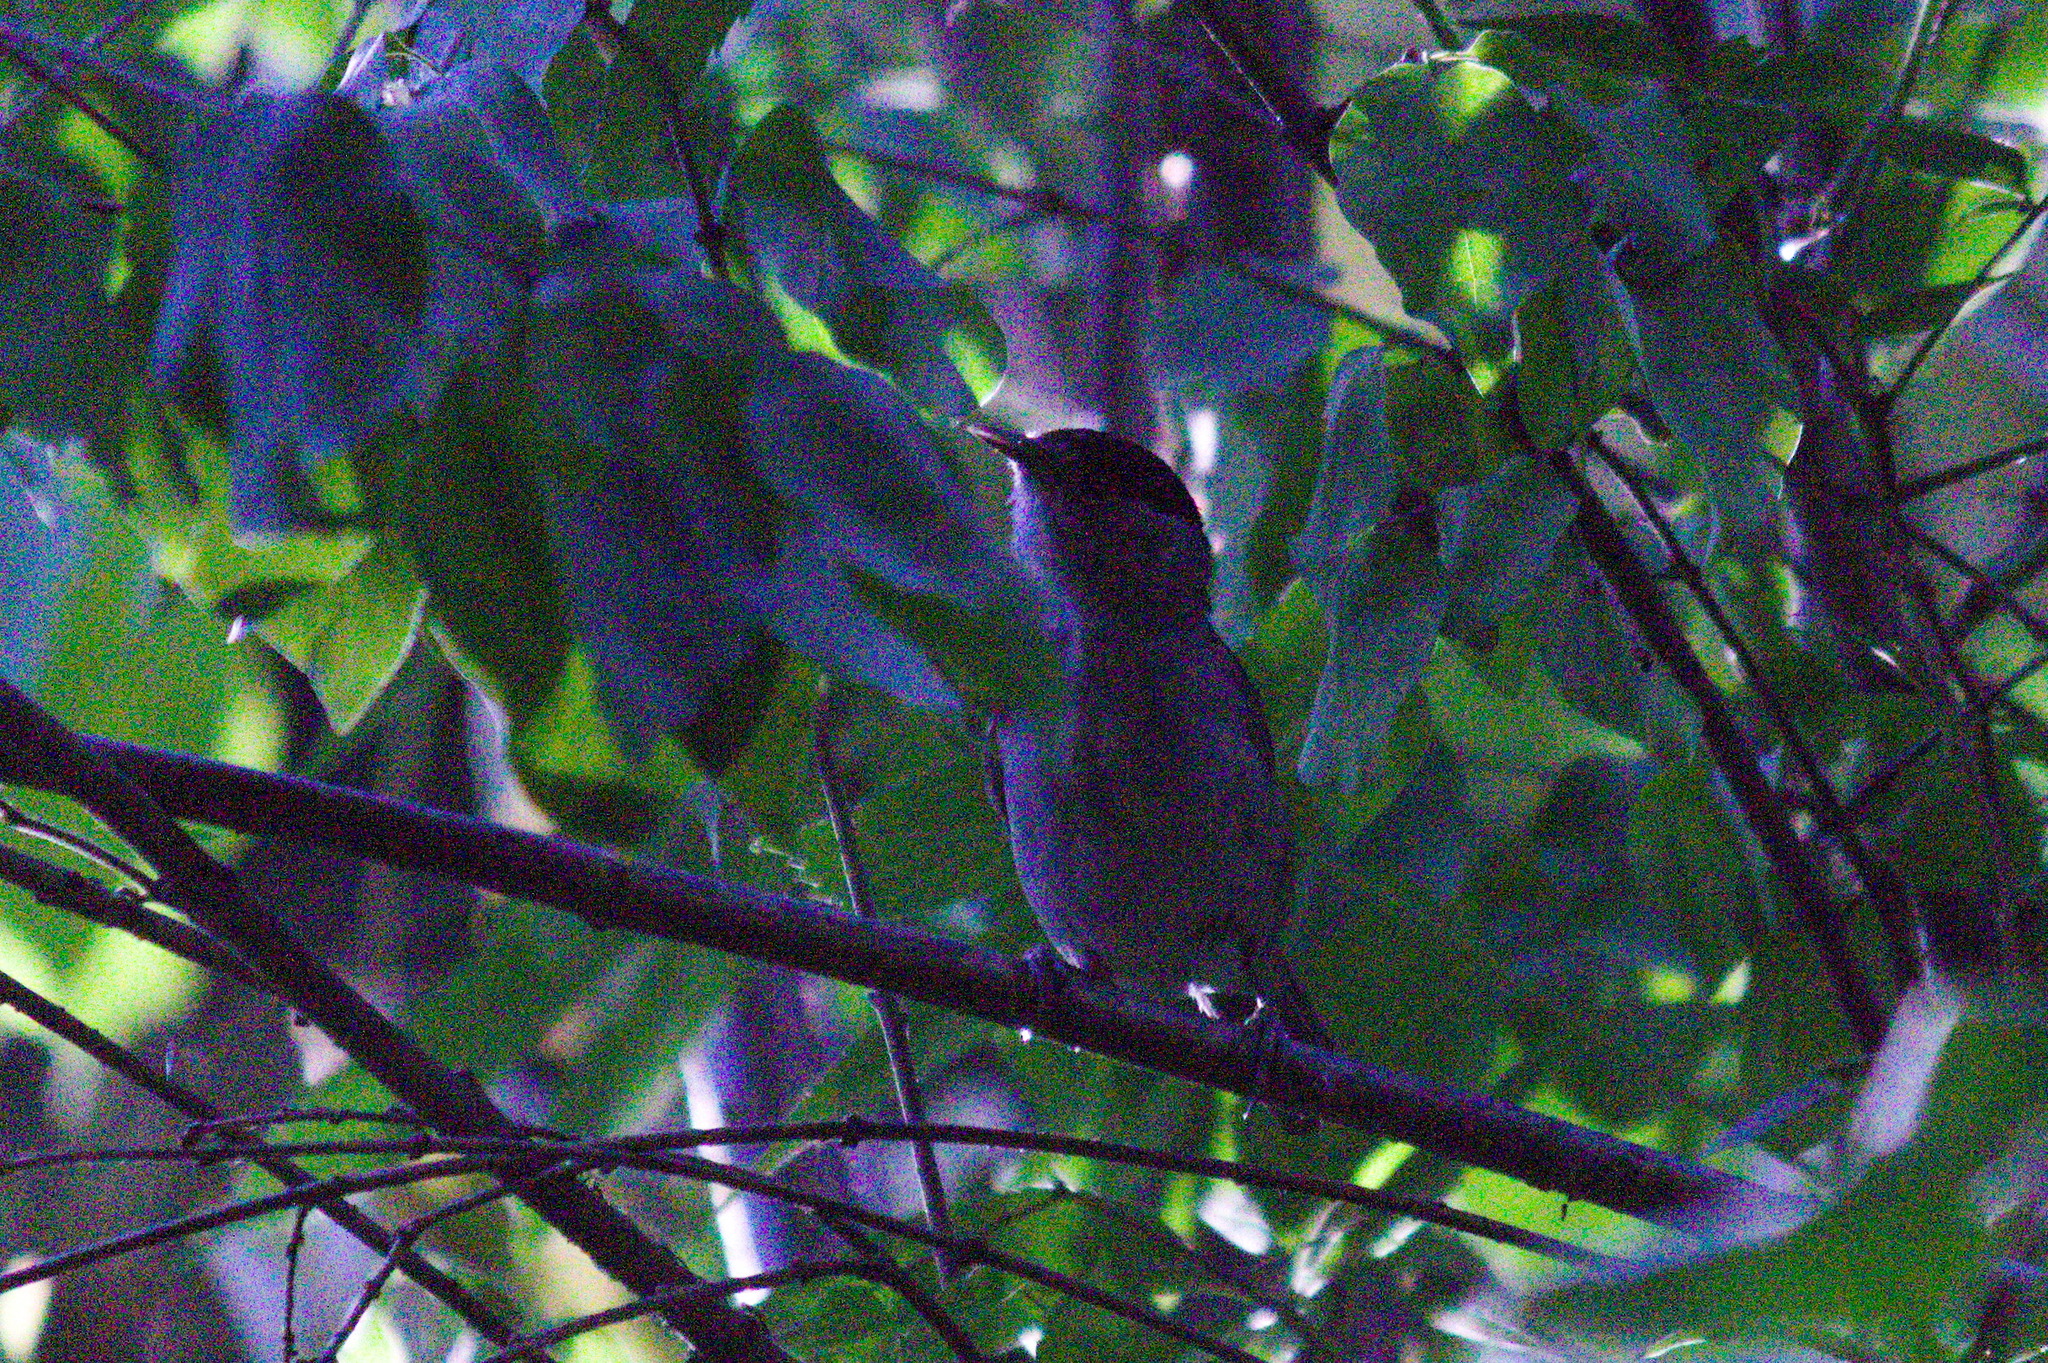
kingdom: Animalia
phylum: Chordata
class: Aves
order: Passeriformes
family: Sylviidae
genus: Sylvia
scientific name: Sylvia atricapilla
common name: Eurasian blackcap
